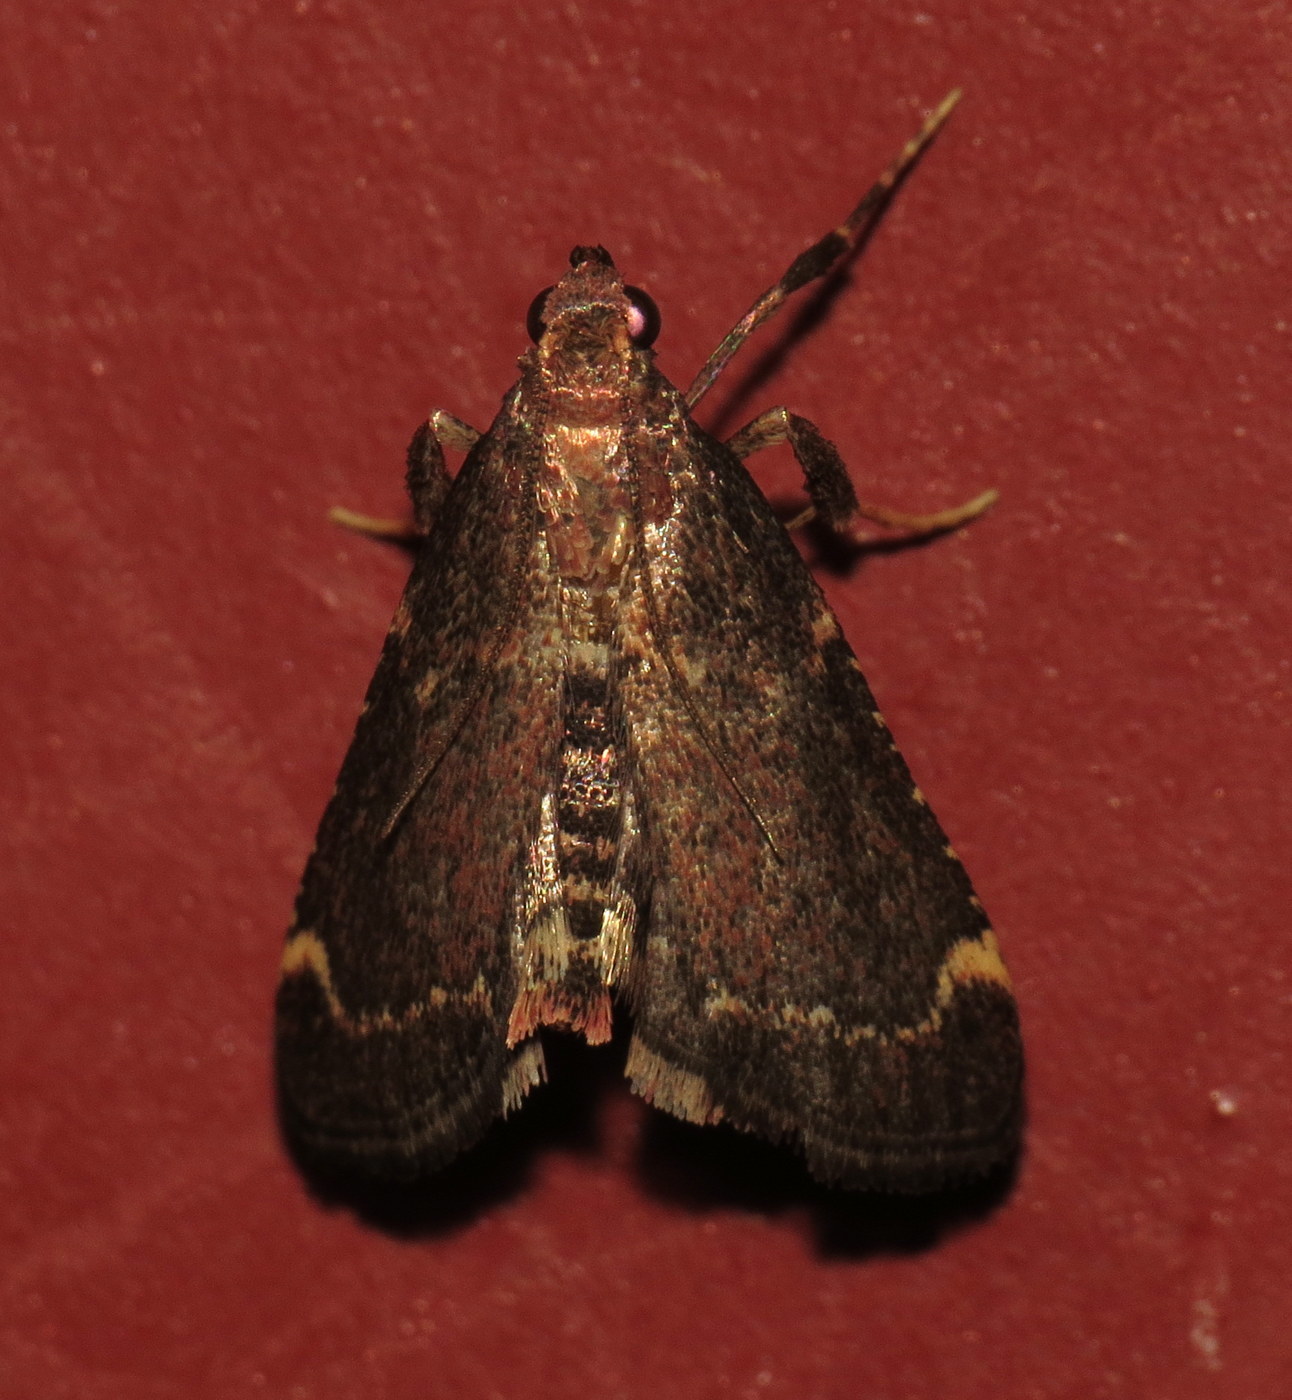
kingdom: Animalia
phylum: Arthropoda
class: Insecta
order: Lepidoptera
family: Pyralidae
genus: Hypsopygia
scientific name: Hypsopygia intermedialis
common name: Red-shawled moth
